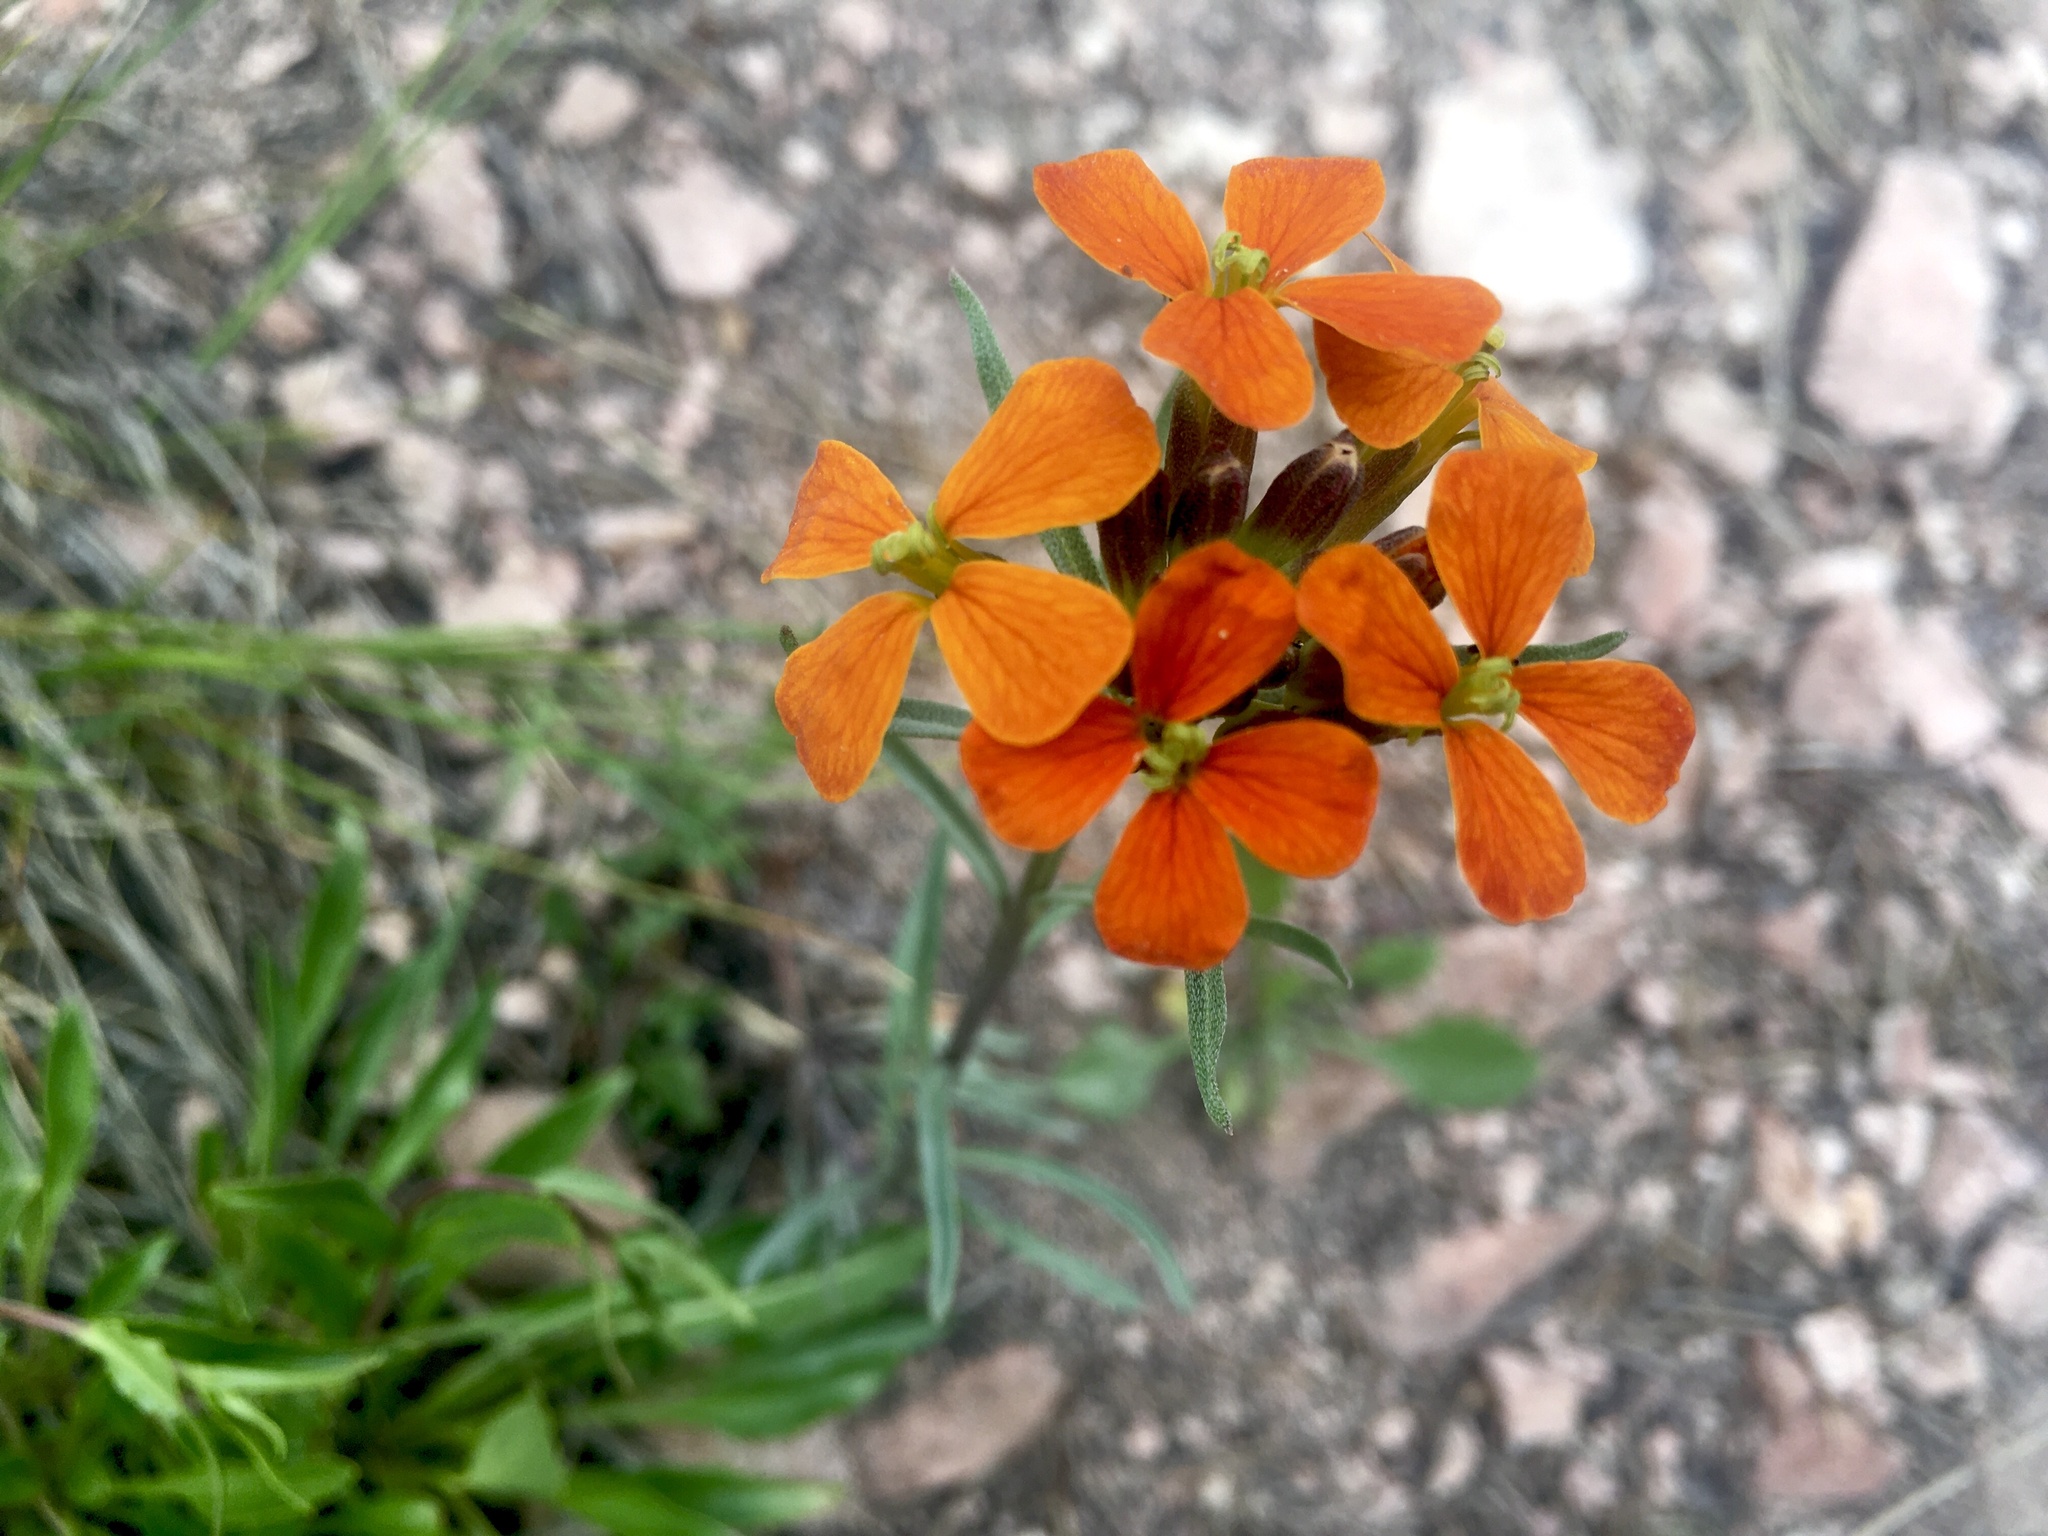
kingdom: Plantae
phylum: Tracheophyta
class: Magnoliopsida
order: Brassicales
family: Brassicaceae
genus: Erysimum
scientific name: Erysimum capitatum
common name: Western wallflower
